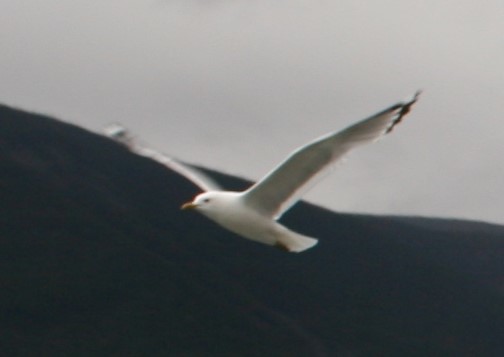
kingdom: Animalia
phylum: Chordata
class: Aves
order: Charadriiformes
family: Laridae
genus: Larus
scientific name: Larus brachyrhynchus
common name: Short-billed gull
